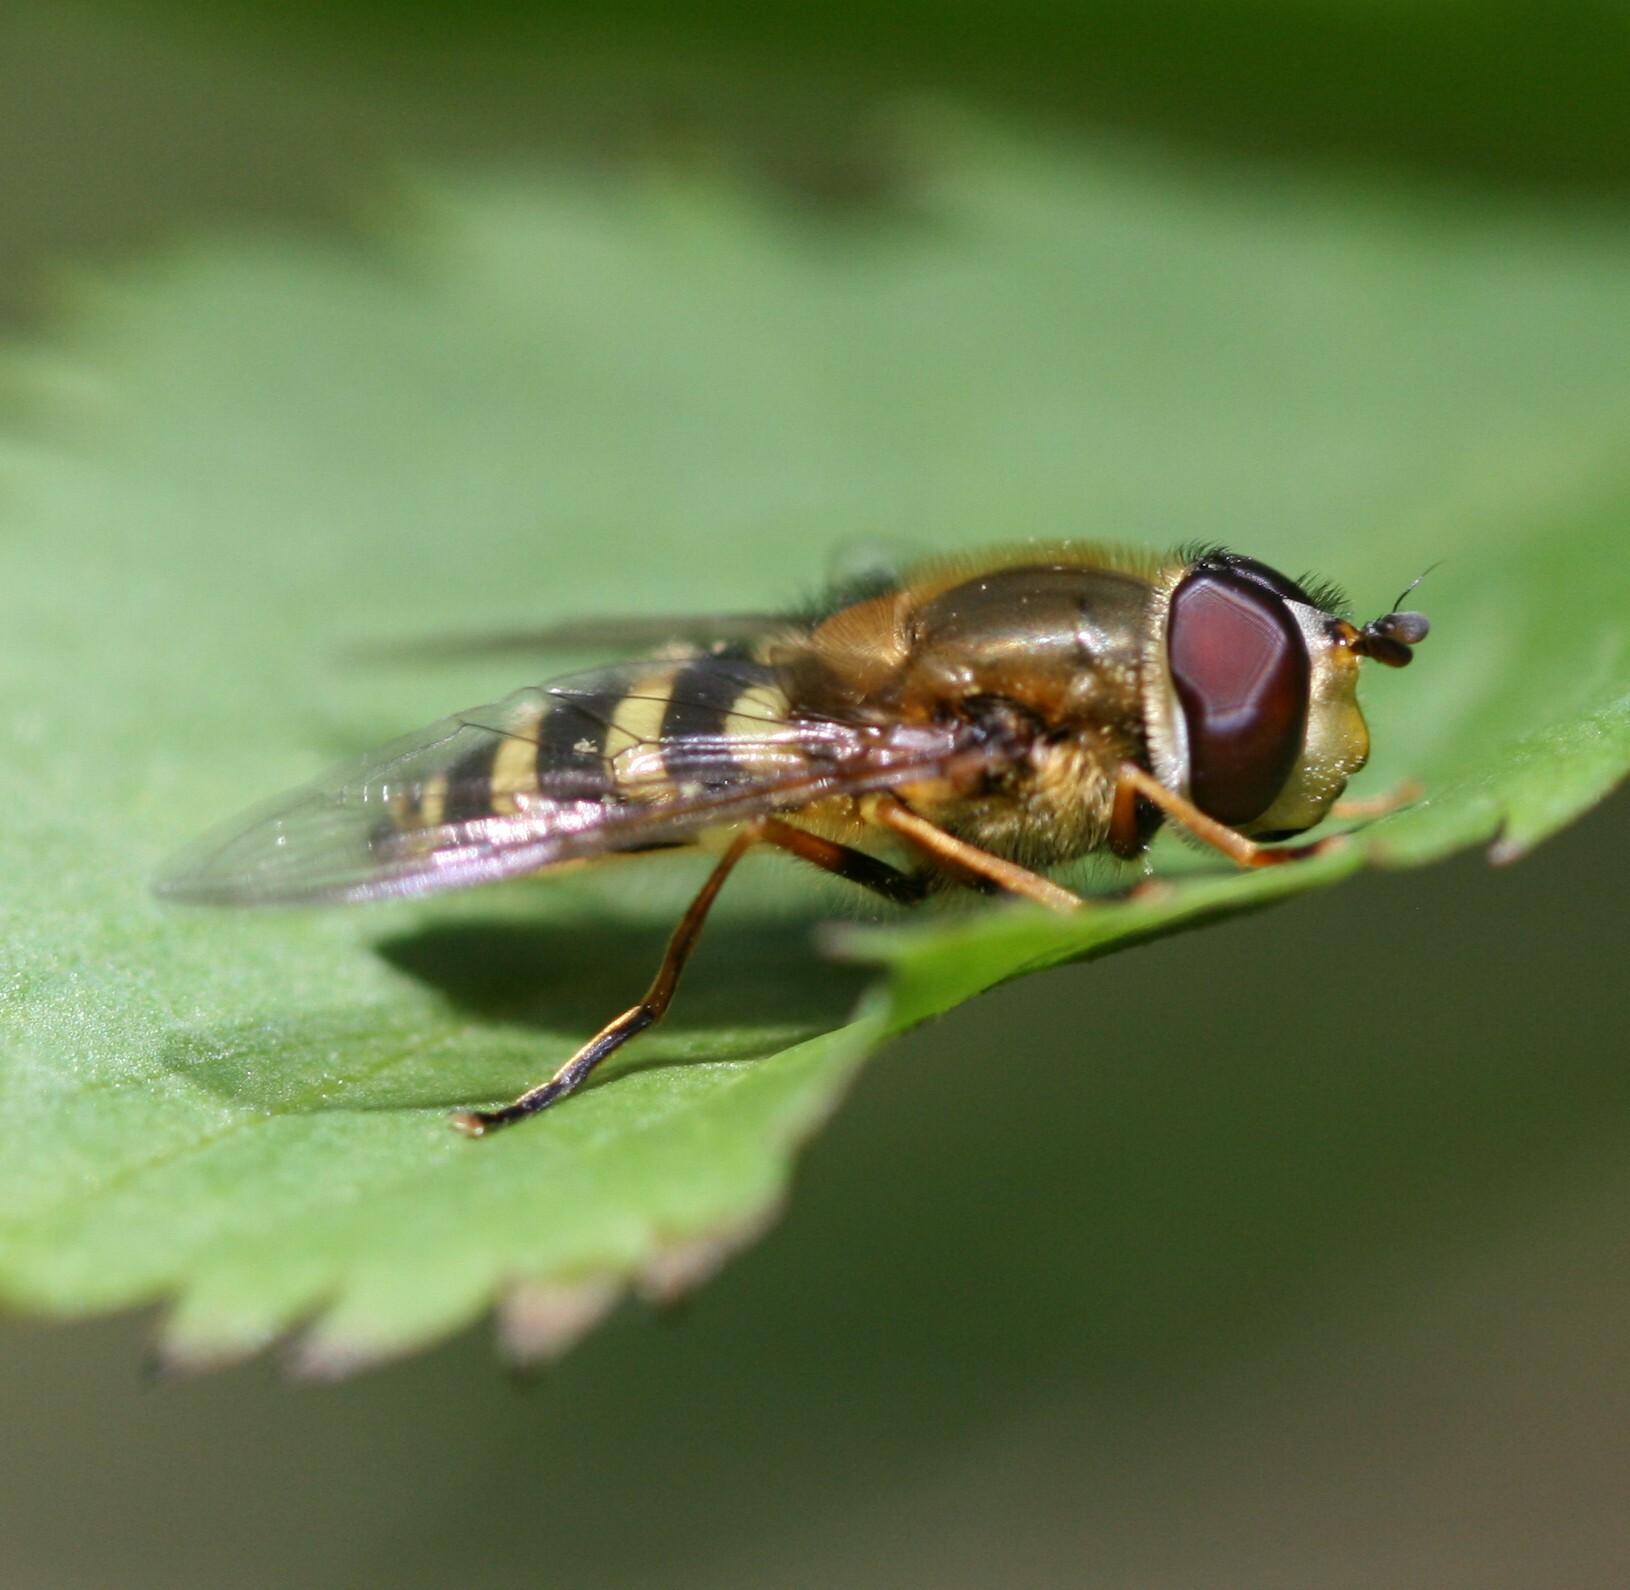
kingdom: Animalia
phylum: Arthropoda
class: Insecta
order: Diptera
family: Syrphidae
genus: Syrphus
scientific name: Syrphus
